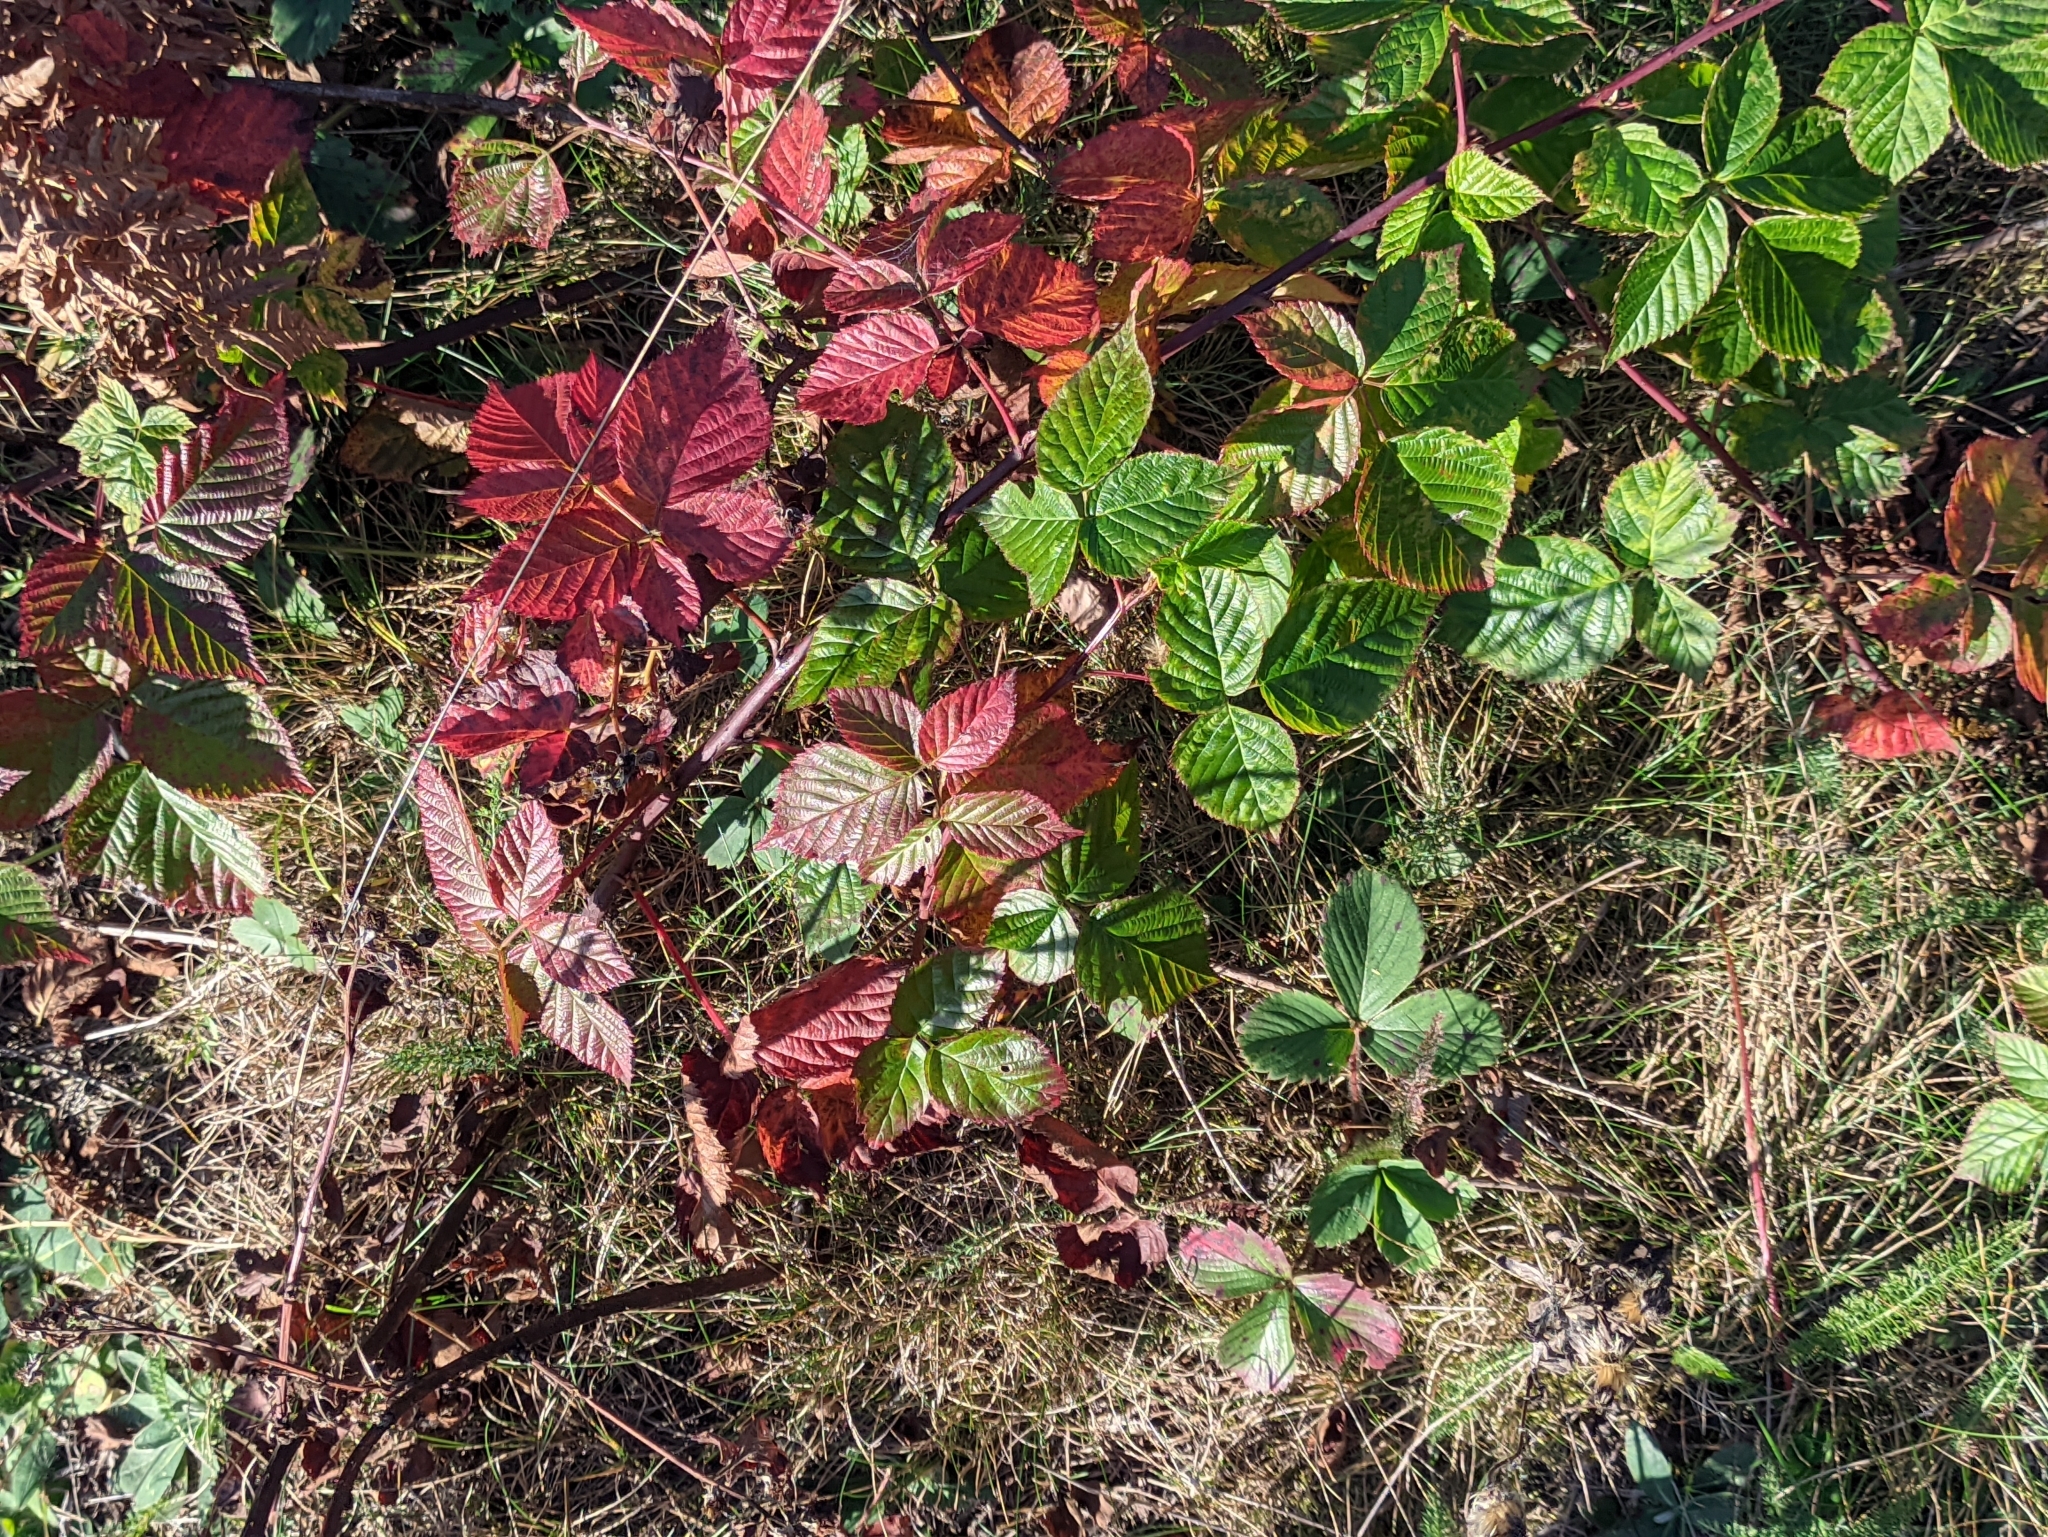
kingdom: Plantae
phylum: Tracheophyta
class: Magnoliopsida
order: Rosales
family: Rosaceae
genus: Rubus
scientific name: Rubus polonicus
